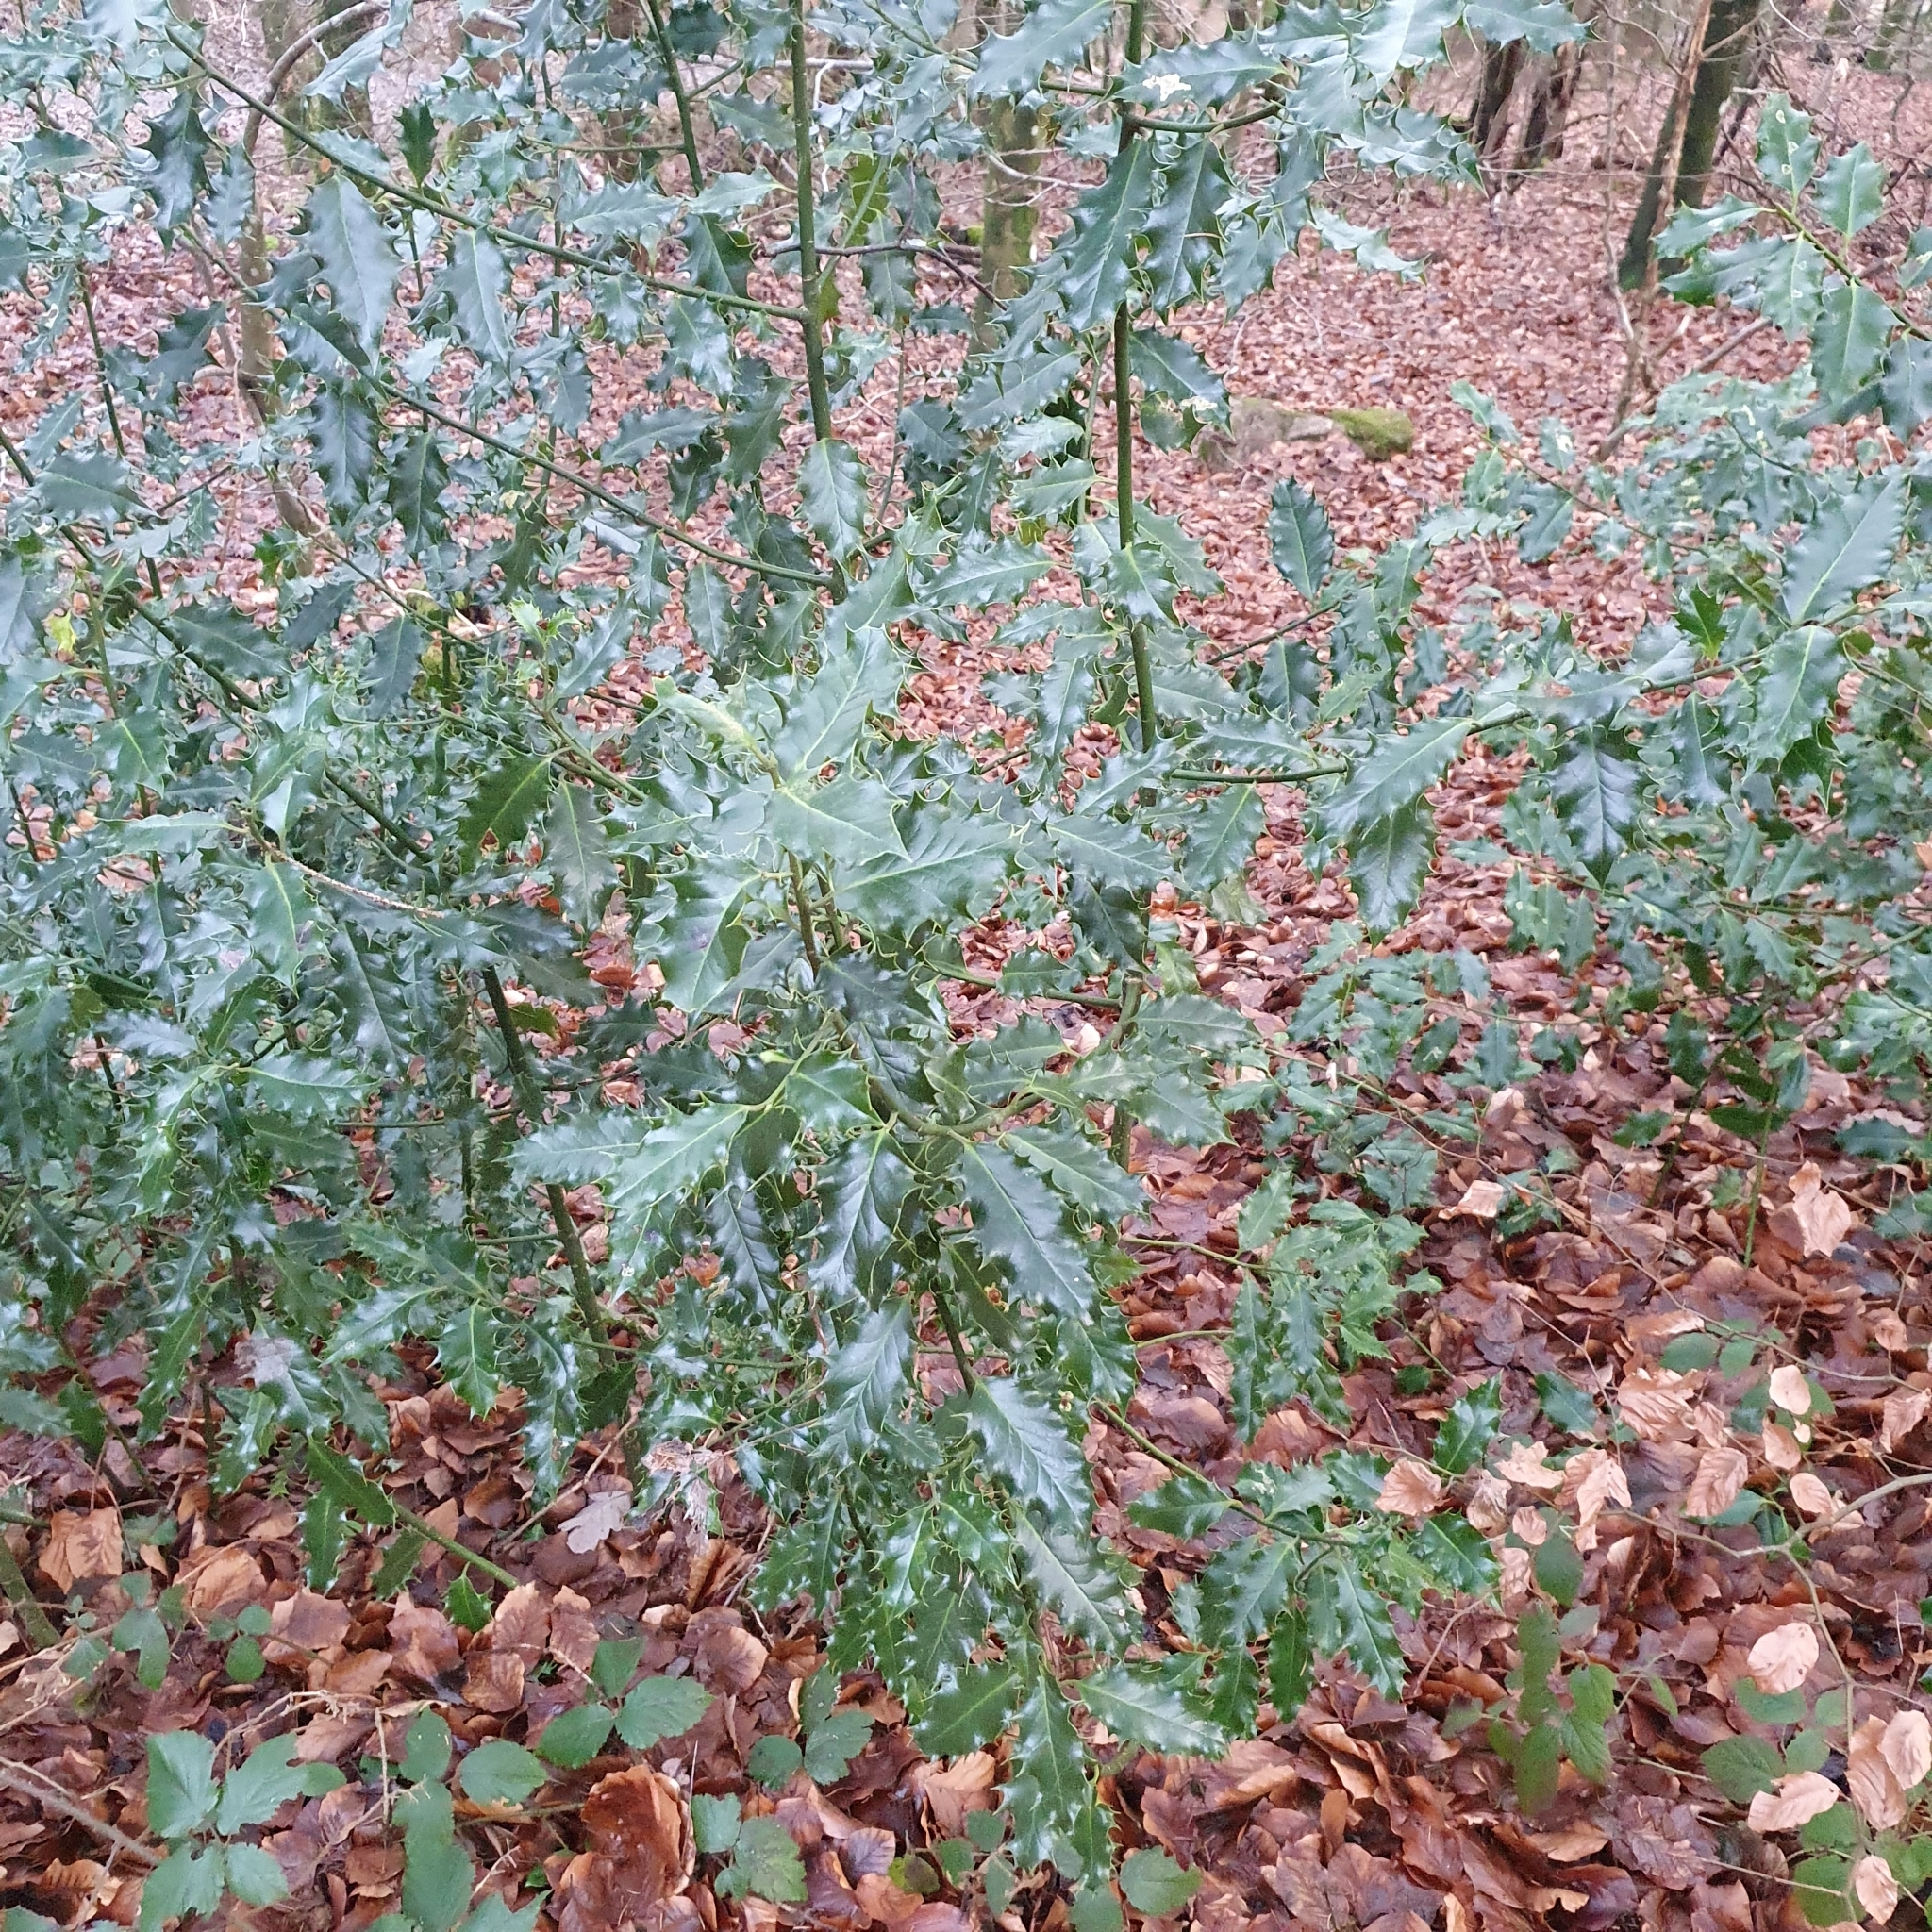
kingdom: Plantae
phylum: Tracheophyta
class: Magnoliopsida
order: Aquifoliales
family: Aquifoliaceae
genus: Ilex
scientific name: Ilex aquifolium
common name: English holly
